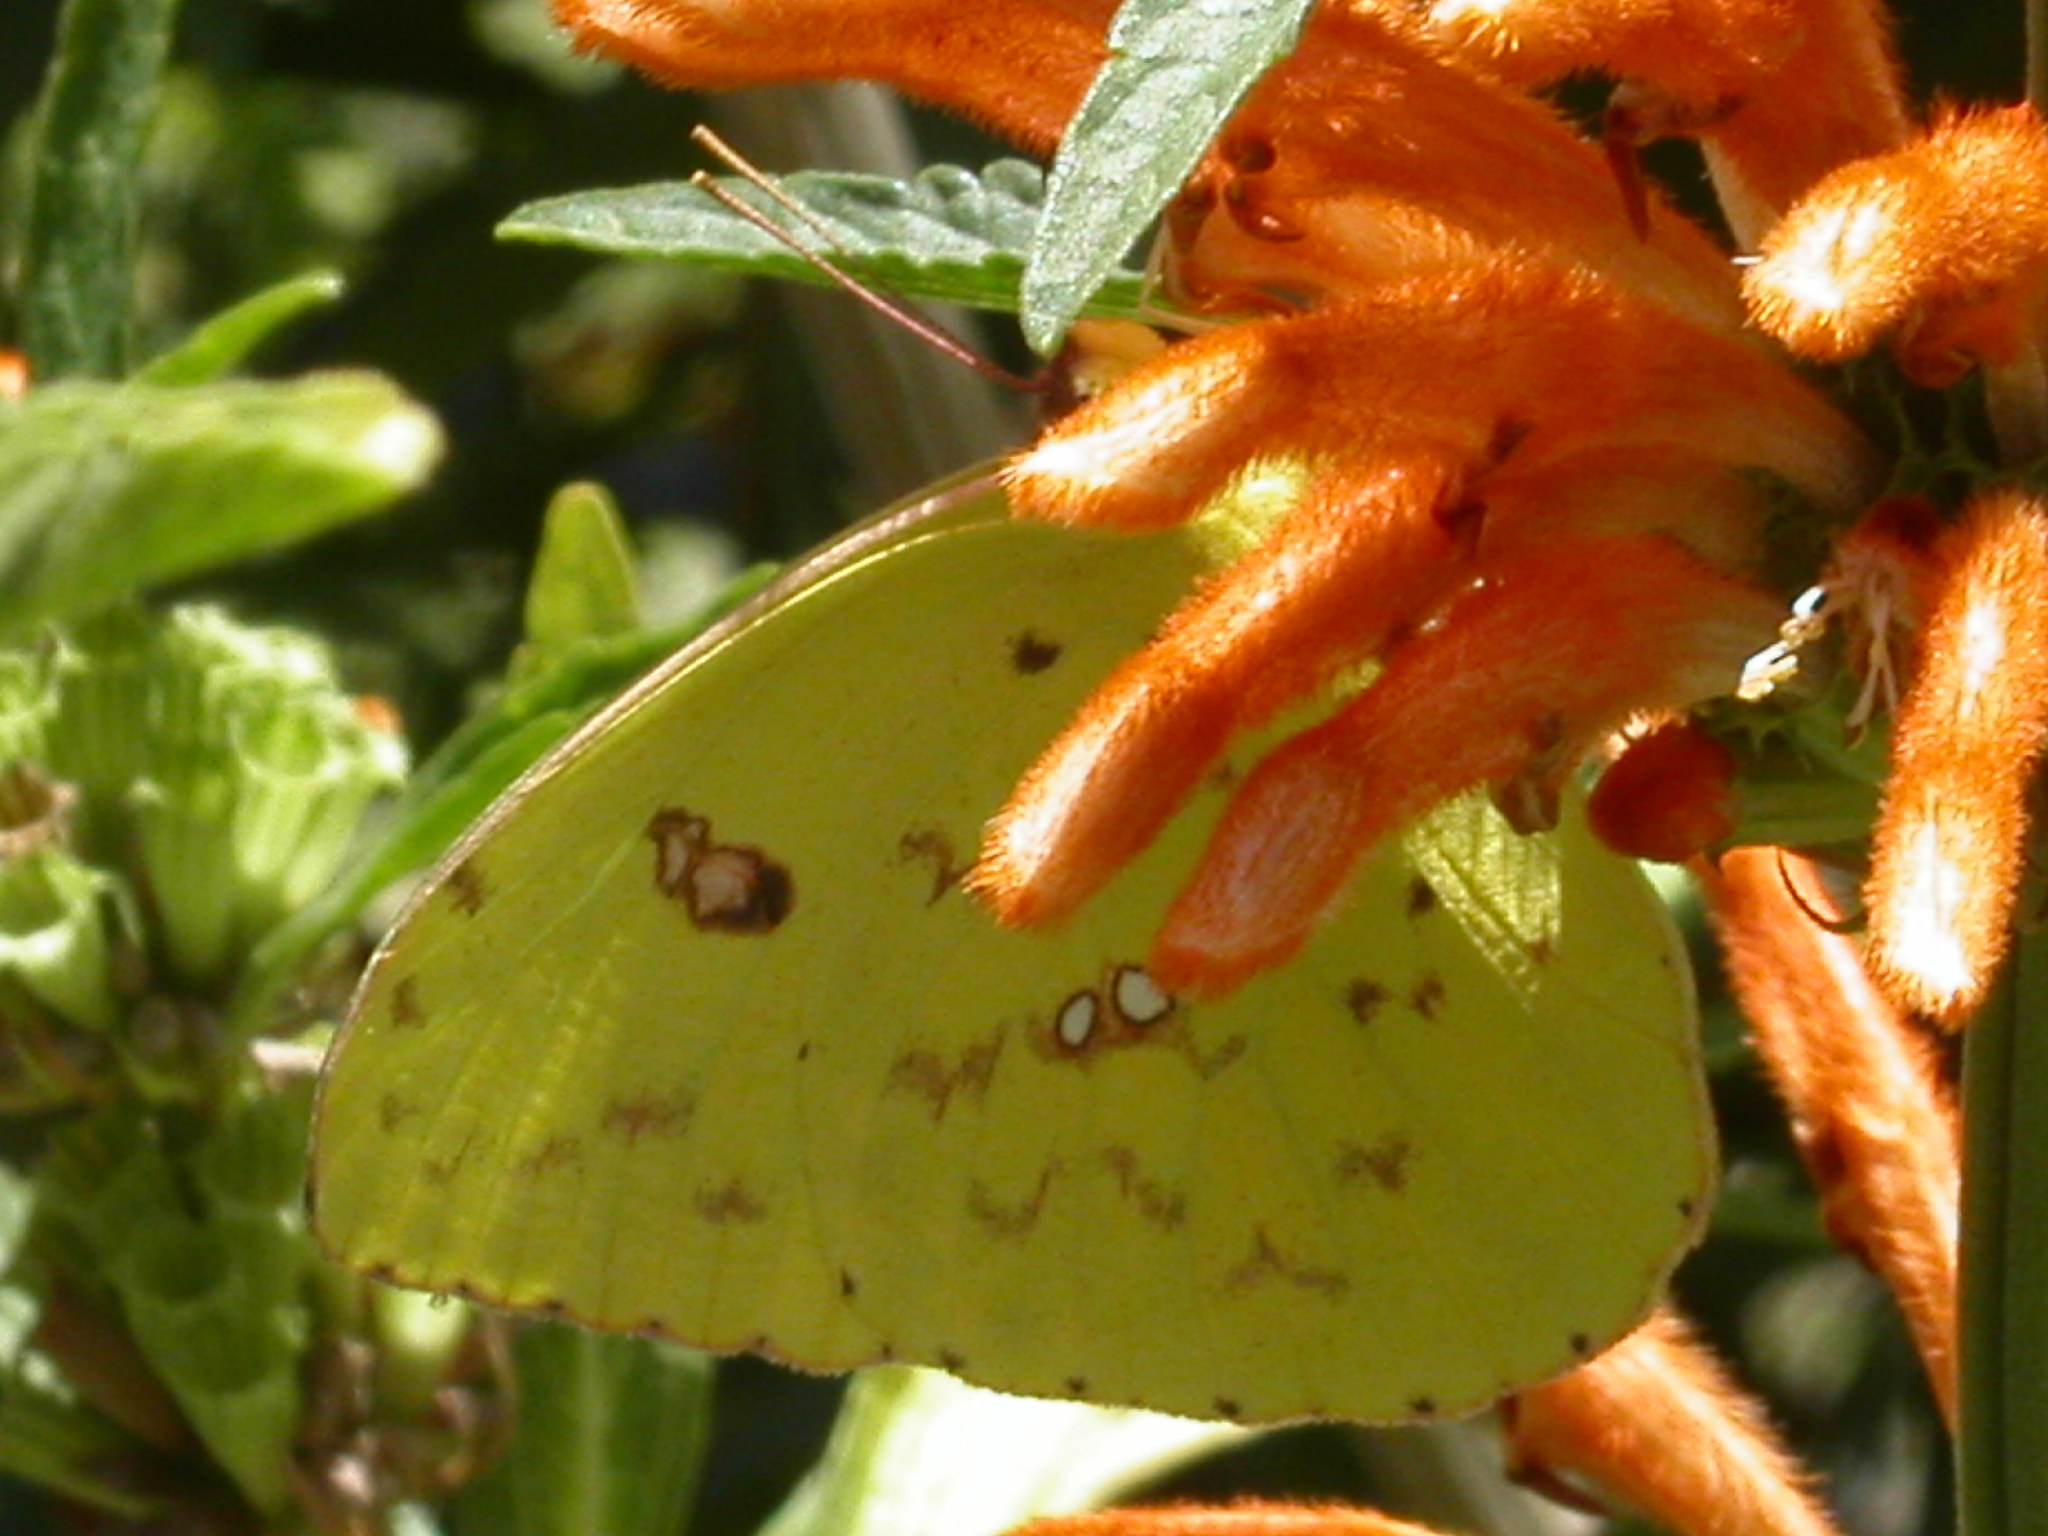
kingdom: Animalia
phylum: Arthropoda
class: Insecta
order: Lepidoptera
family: Pieridae
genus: Phoebis
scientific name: Phoebis sennae
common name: Cloudless sulphur
